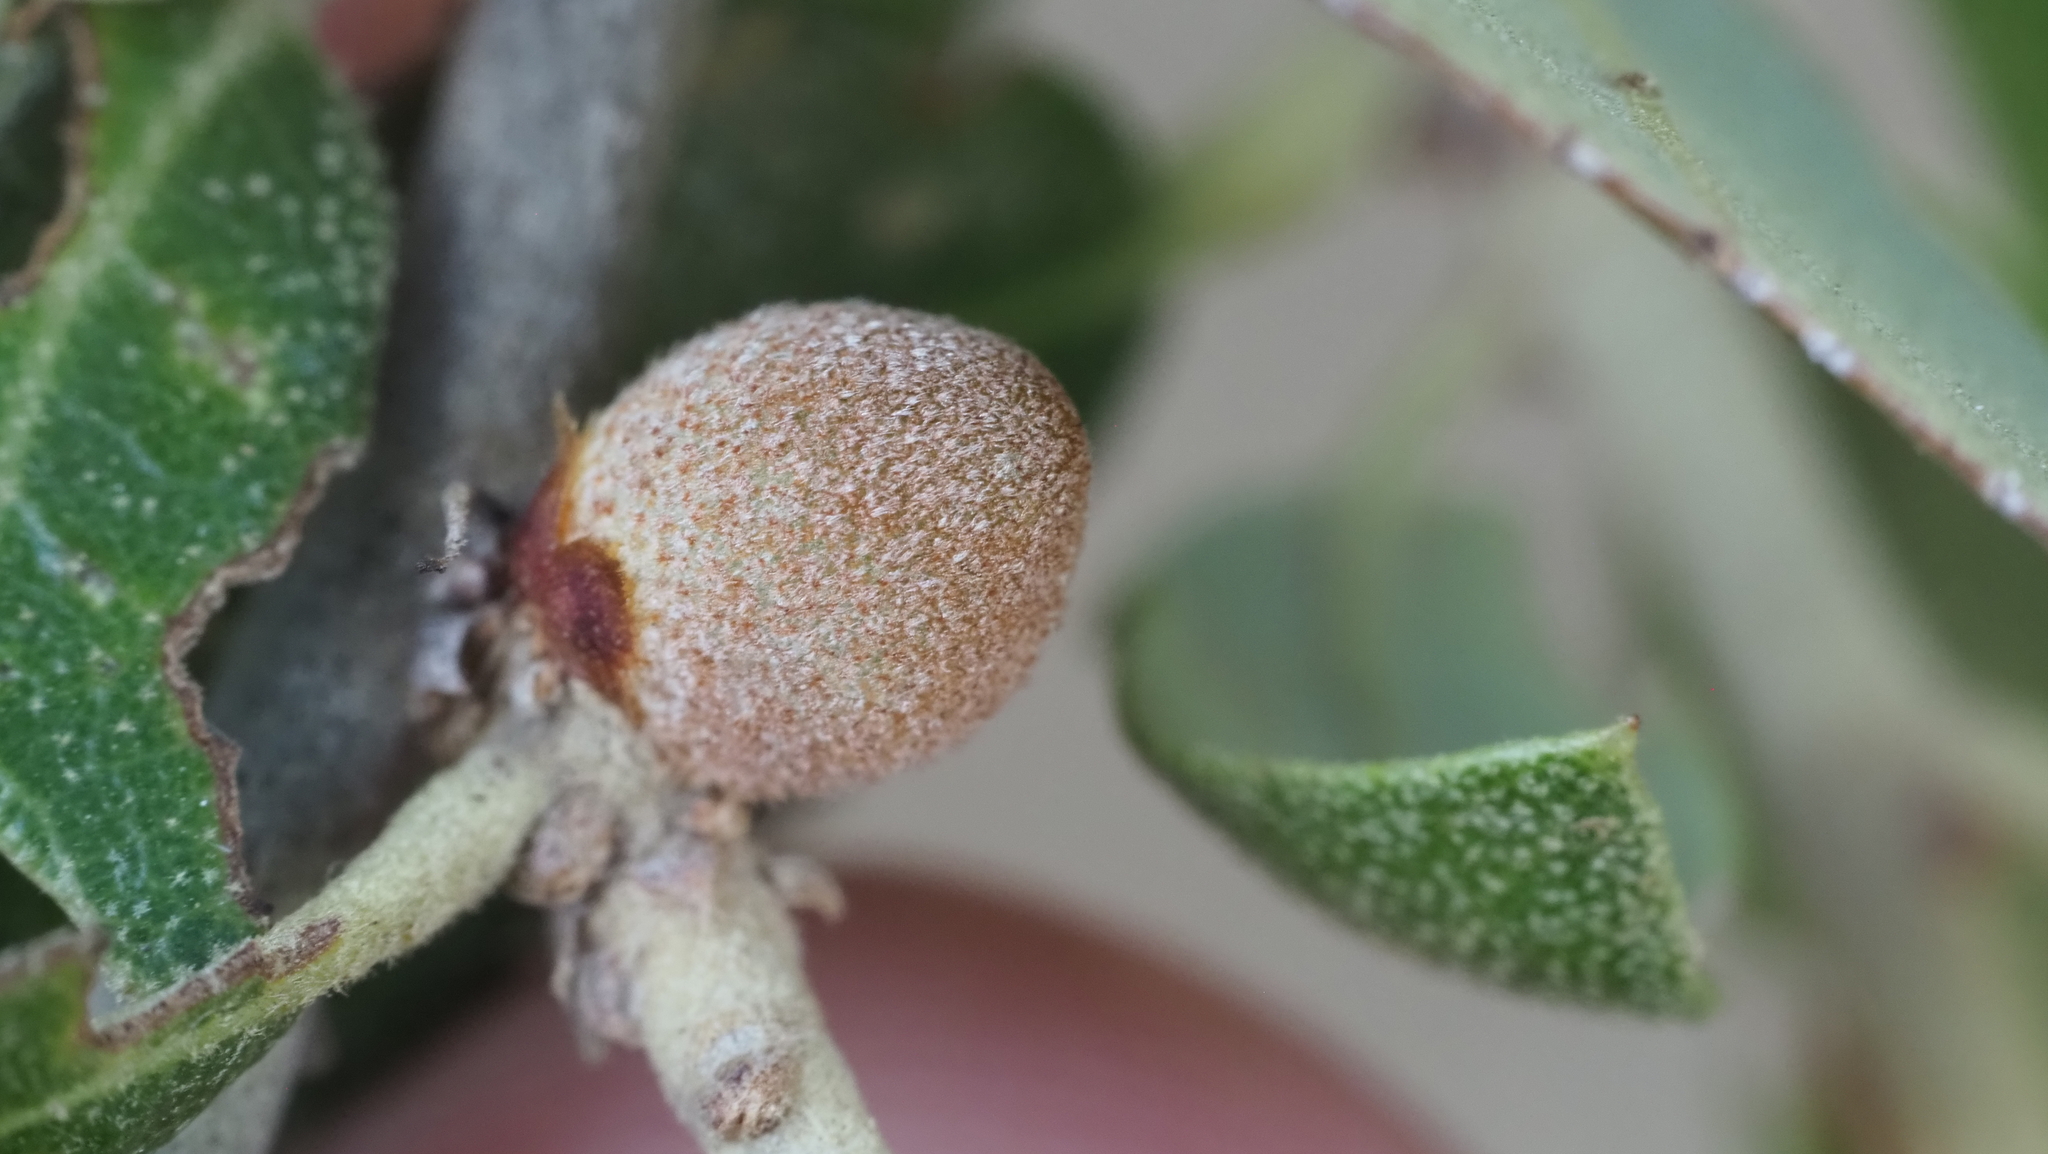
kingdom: Animalia
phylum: Arthropoda
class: Insecta
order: Hymenoptera
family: Cynipidae
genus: Disholcaspis
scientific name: Disholcaspis
